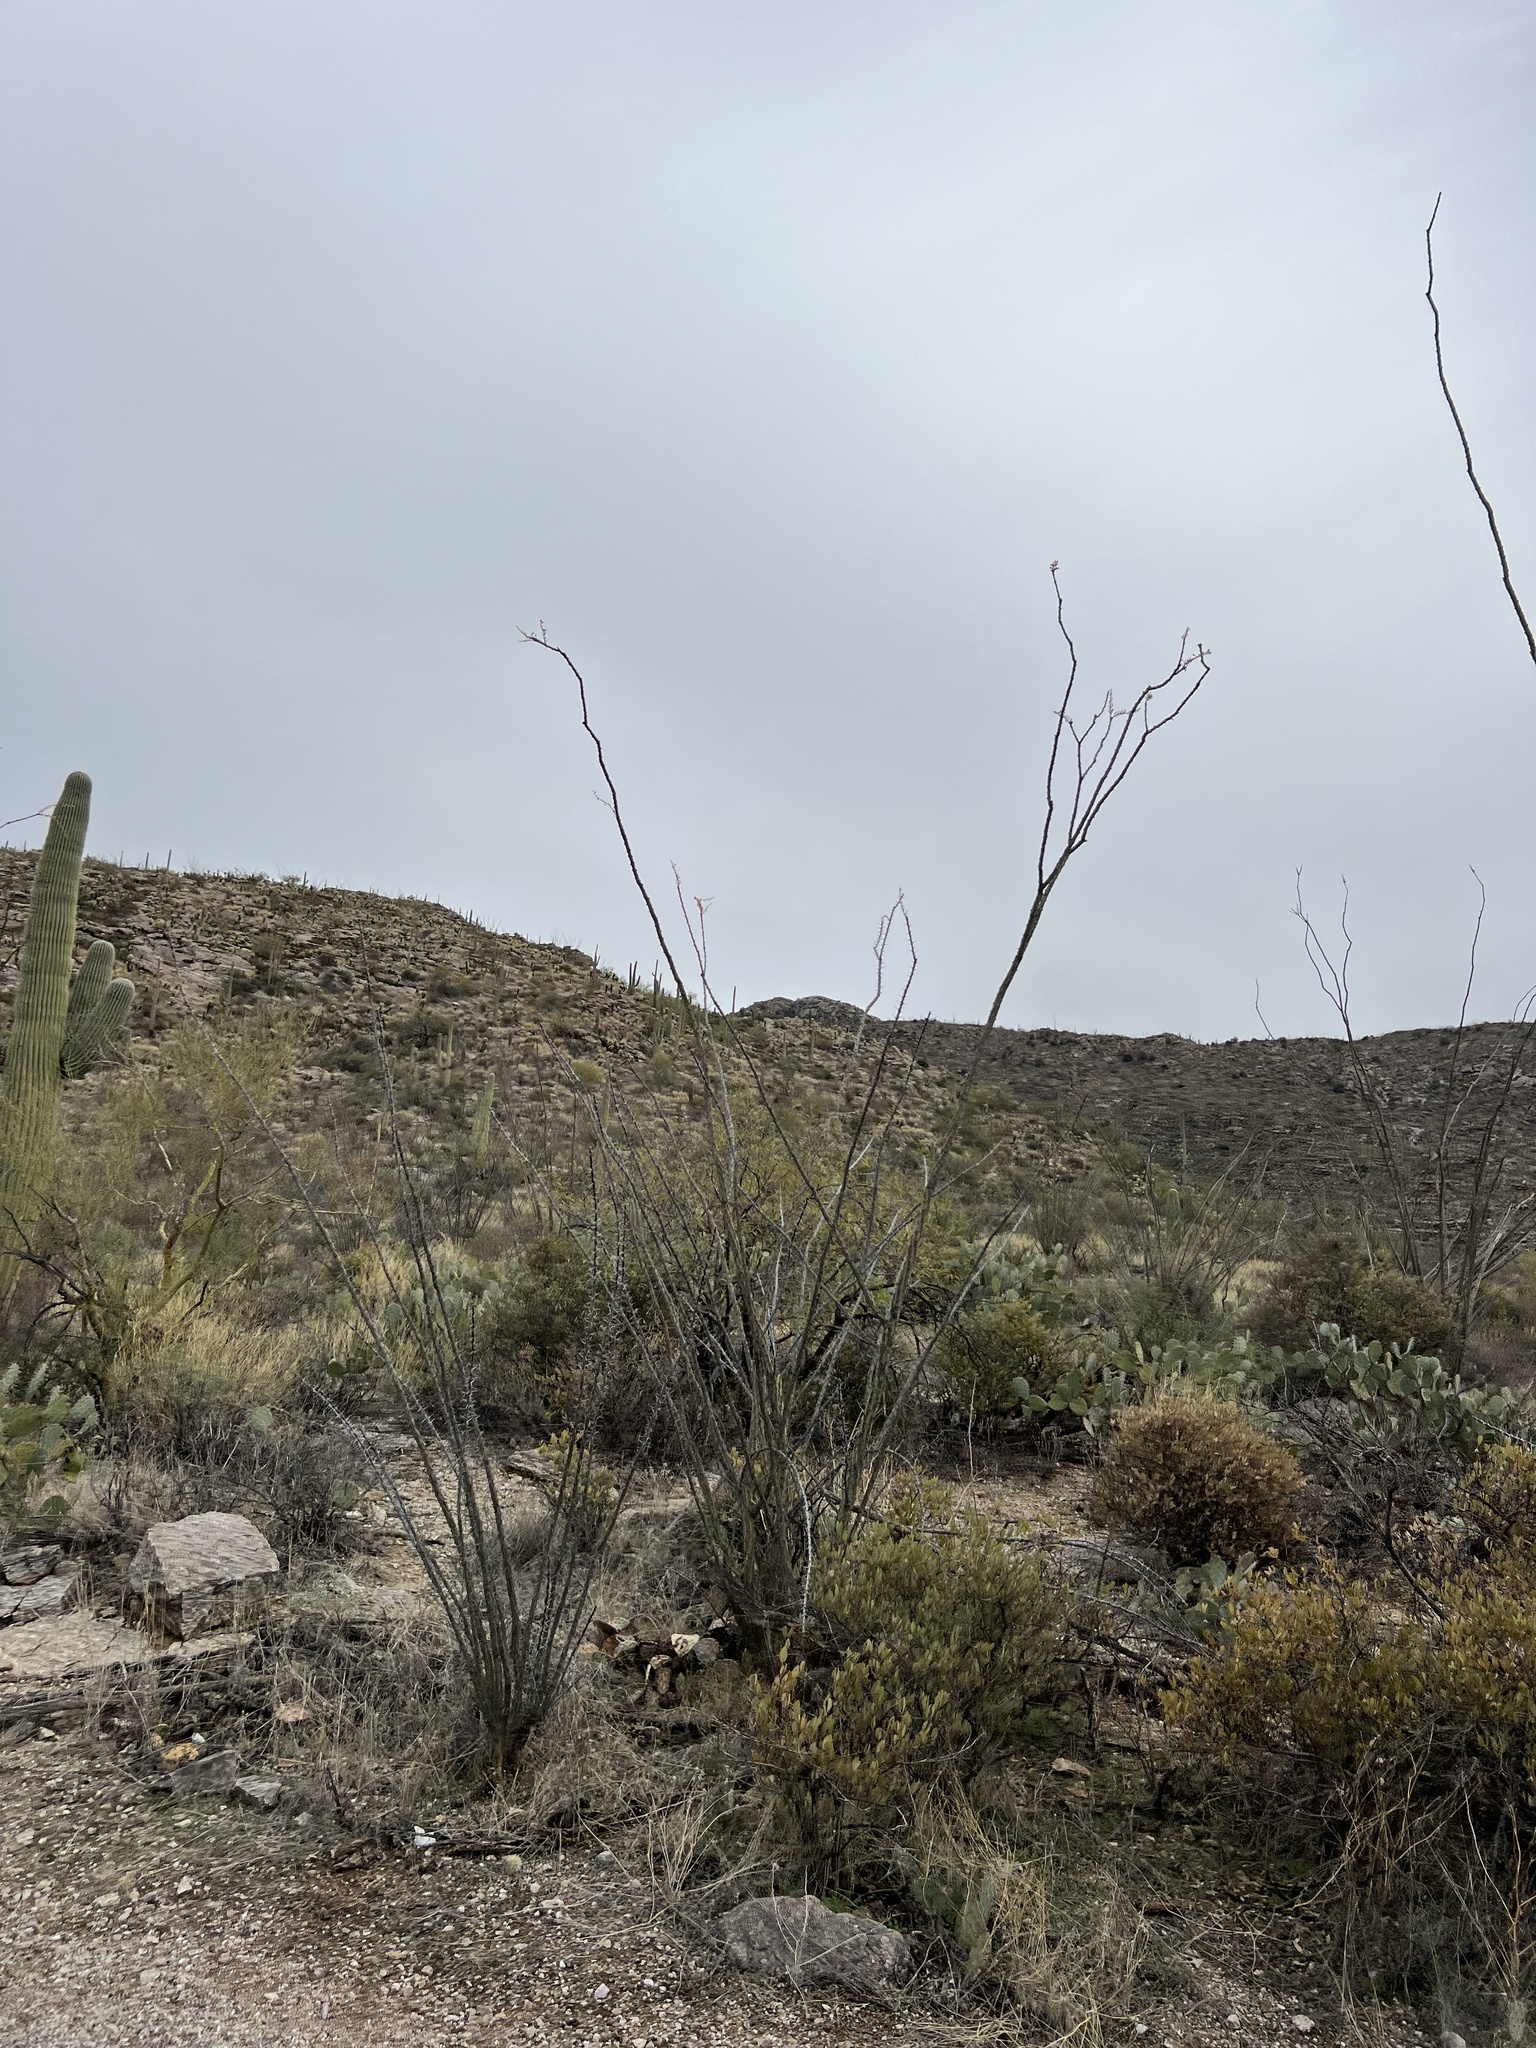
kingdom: Plantae
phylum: Tracheophyta
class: Magnoliopsida
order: Ericales
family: Fouquieriaceae
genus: Fouquieria
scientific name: Fouquieria splendens
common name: Vine-cactus
